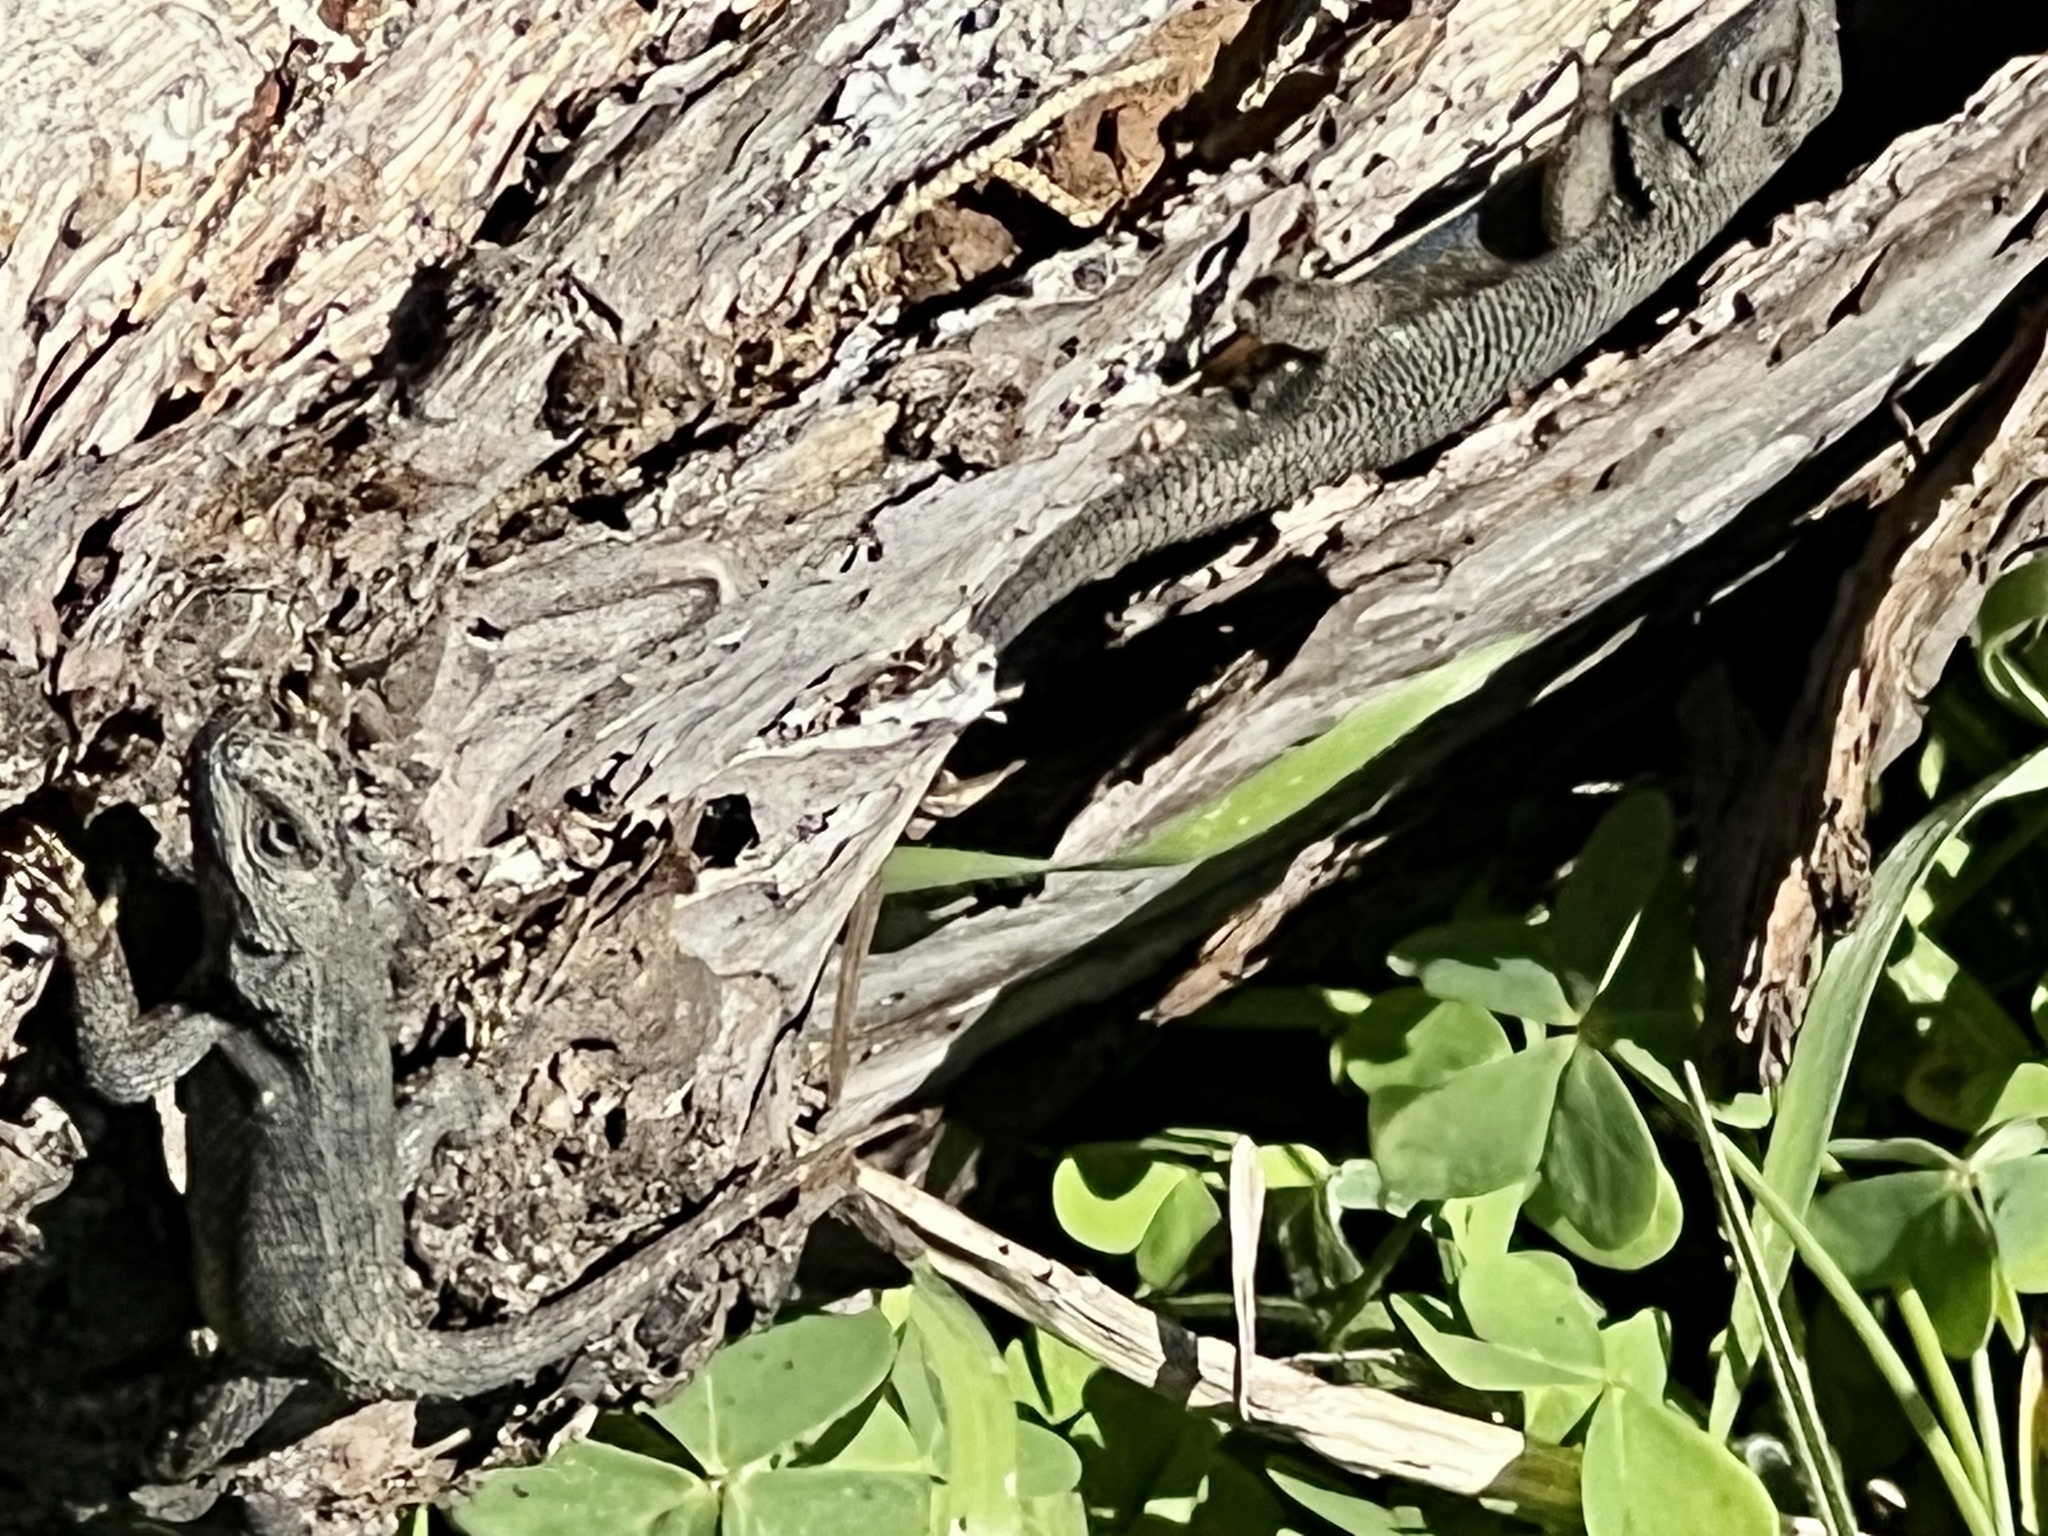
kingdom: Animalia
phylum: Chordata
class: Squamata
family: Phrynosomatidae
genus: Sceloporus
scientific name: Sceloporus occidentalis
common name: Western fence lizard
